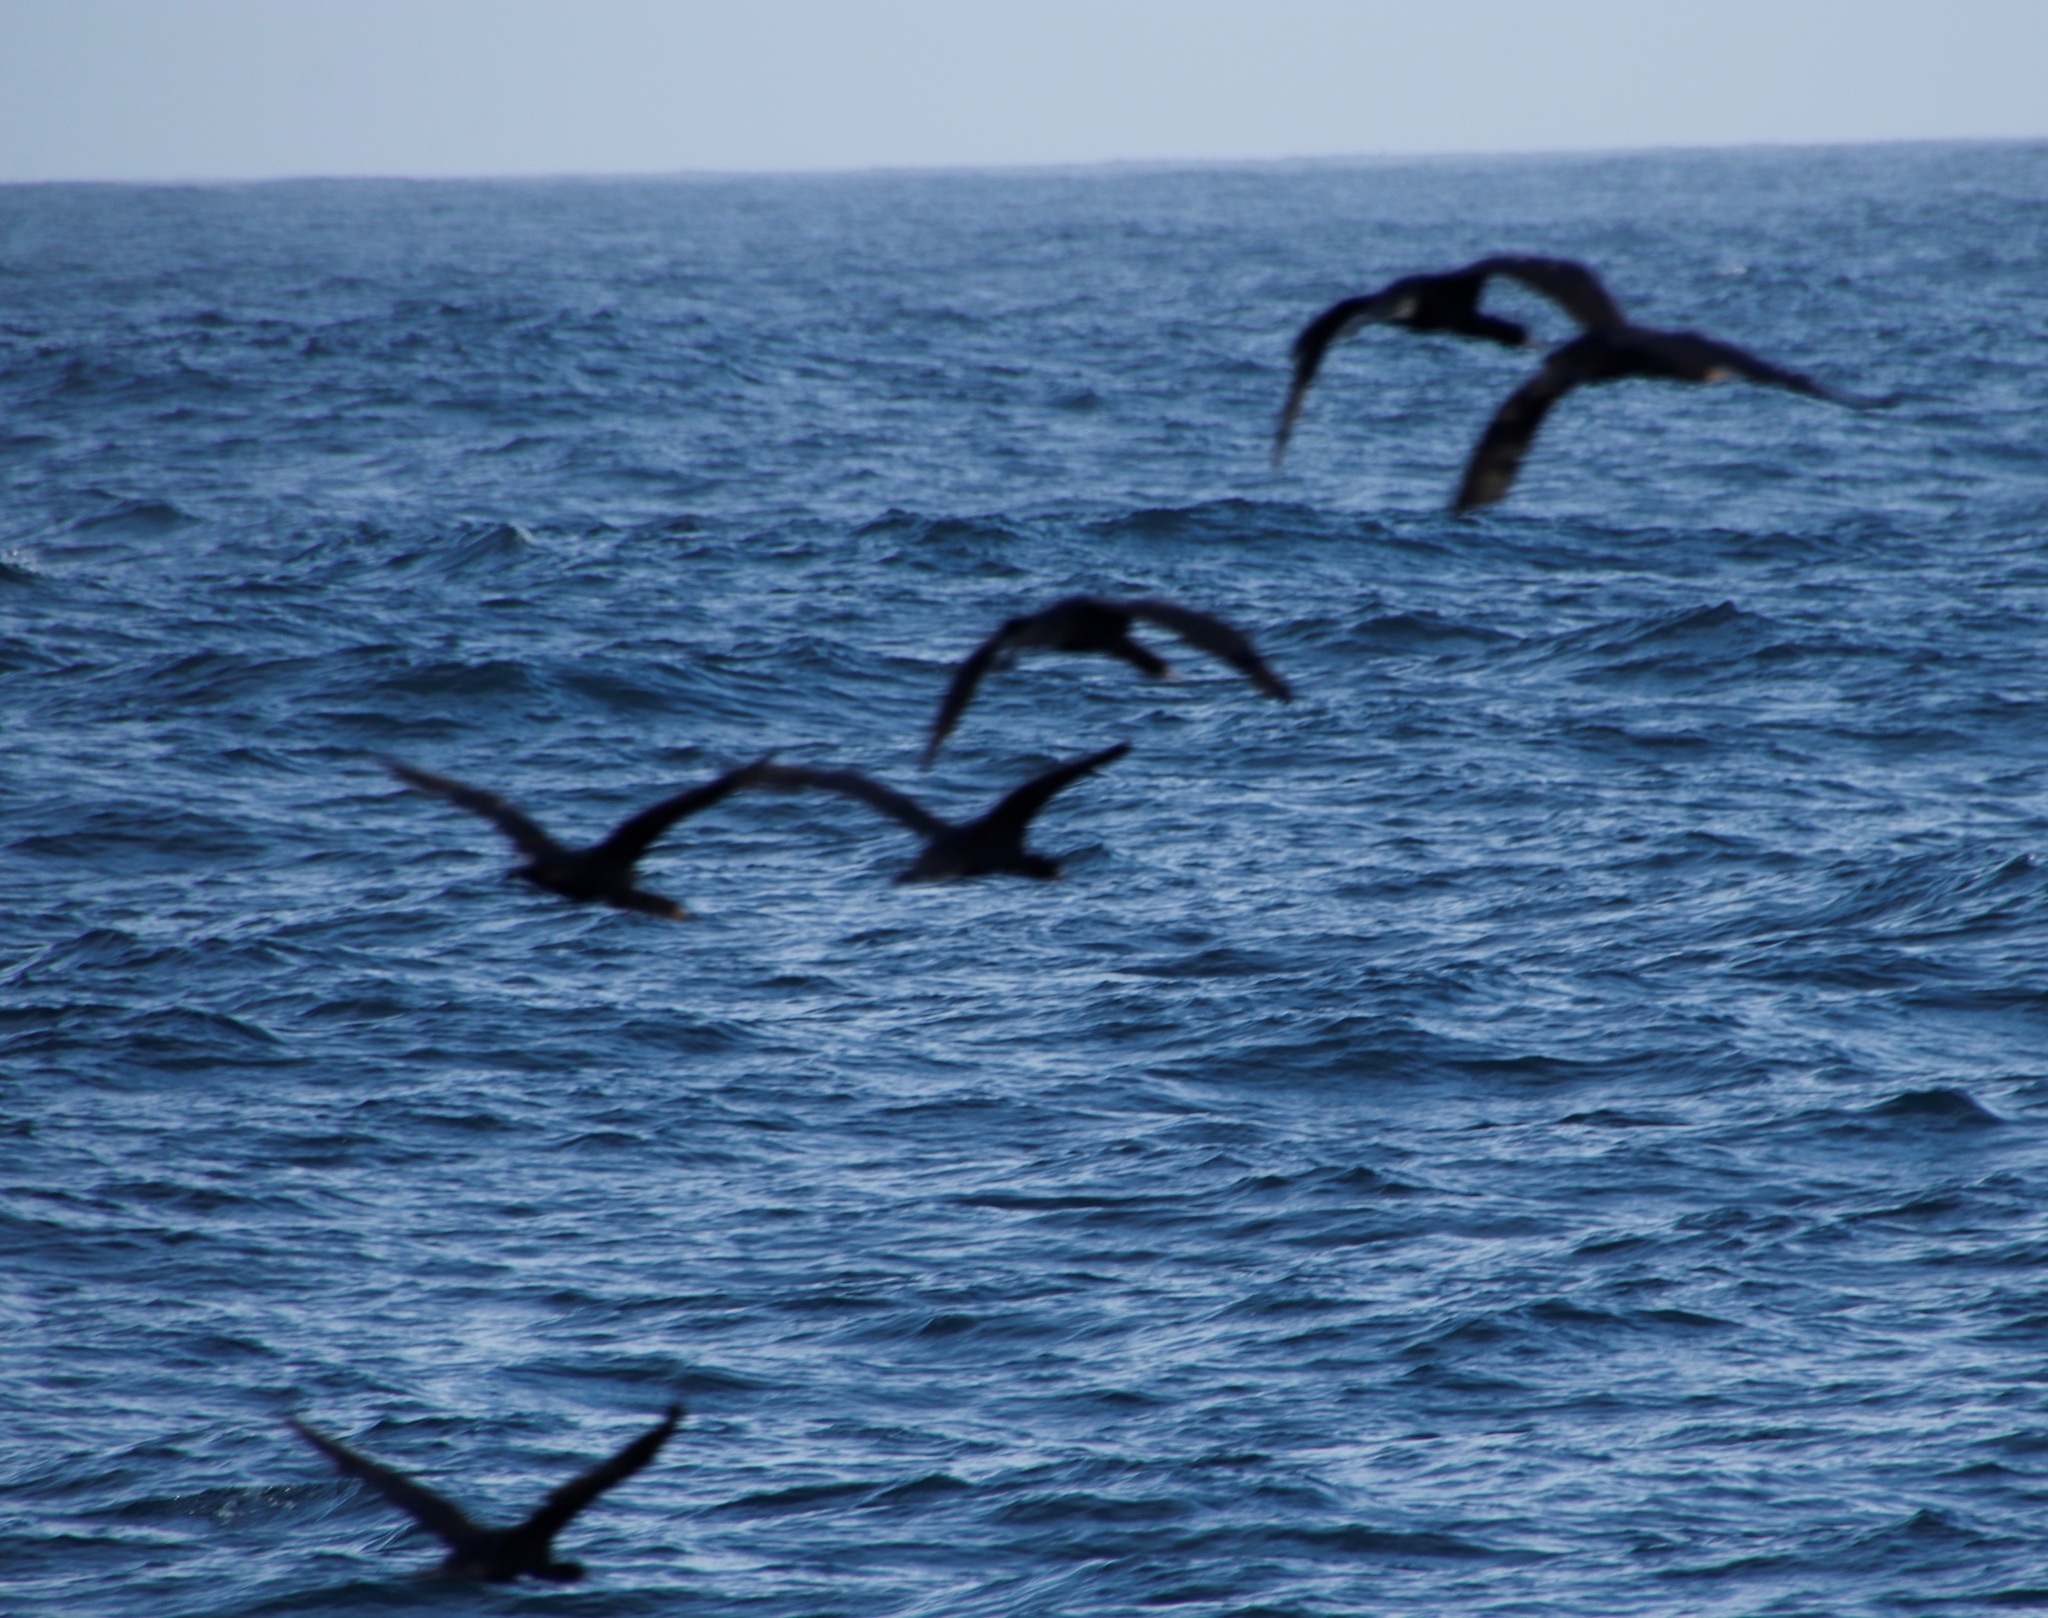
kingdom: Animalia
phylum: Chordata
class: Aves
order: Suliformes
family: Phalacrocoracidae
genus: Phalacrocorax
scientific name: Phalacrocorax capensis
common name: Cape cormorant
